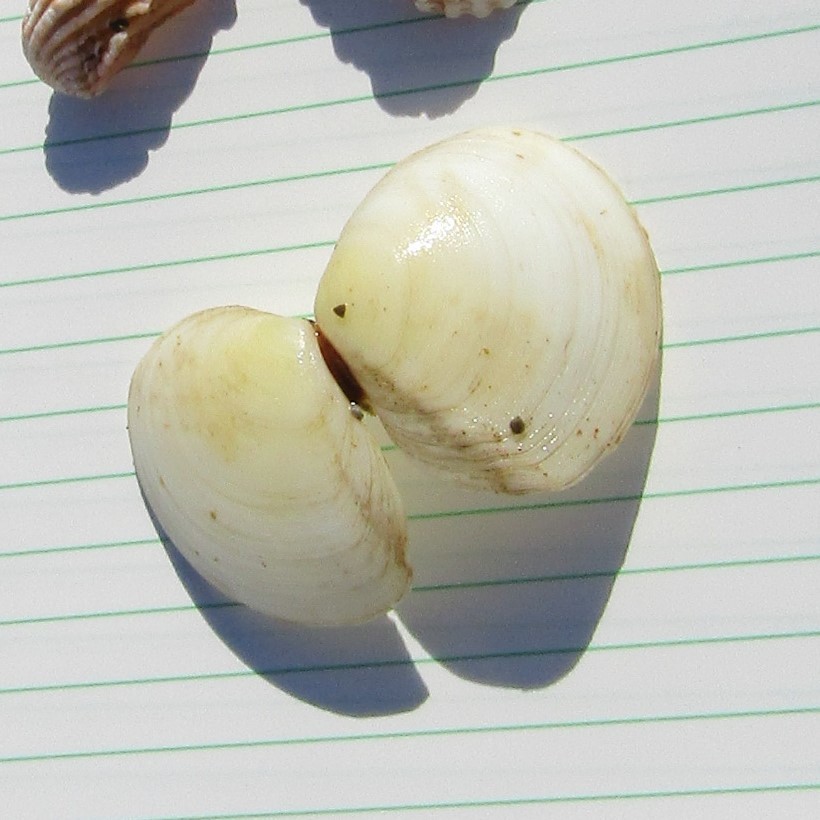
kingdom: Animalia
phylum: Mollusca
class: Bivalvia
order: Cardiida
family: Tellinidae
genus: Pseudarcopagia
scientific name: Pseudarcopagia disculus
